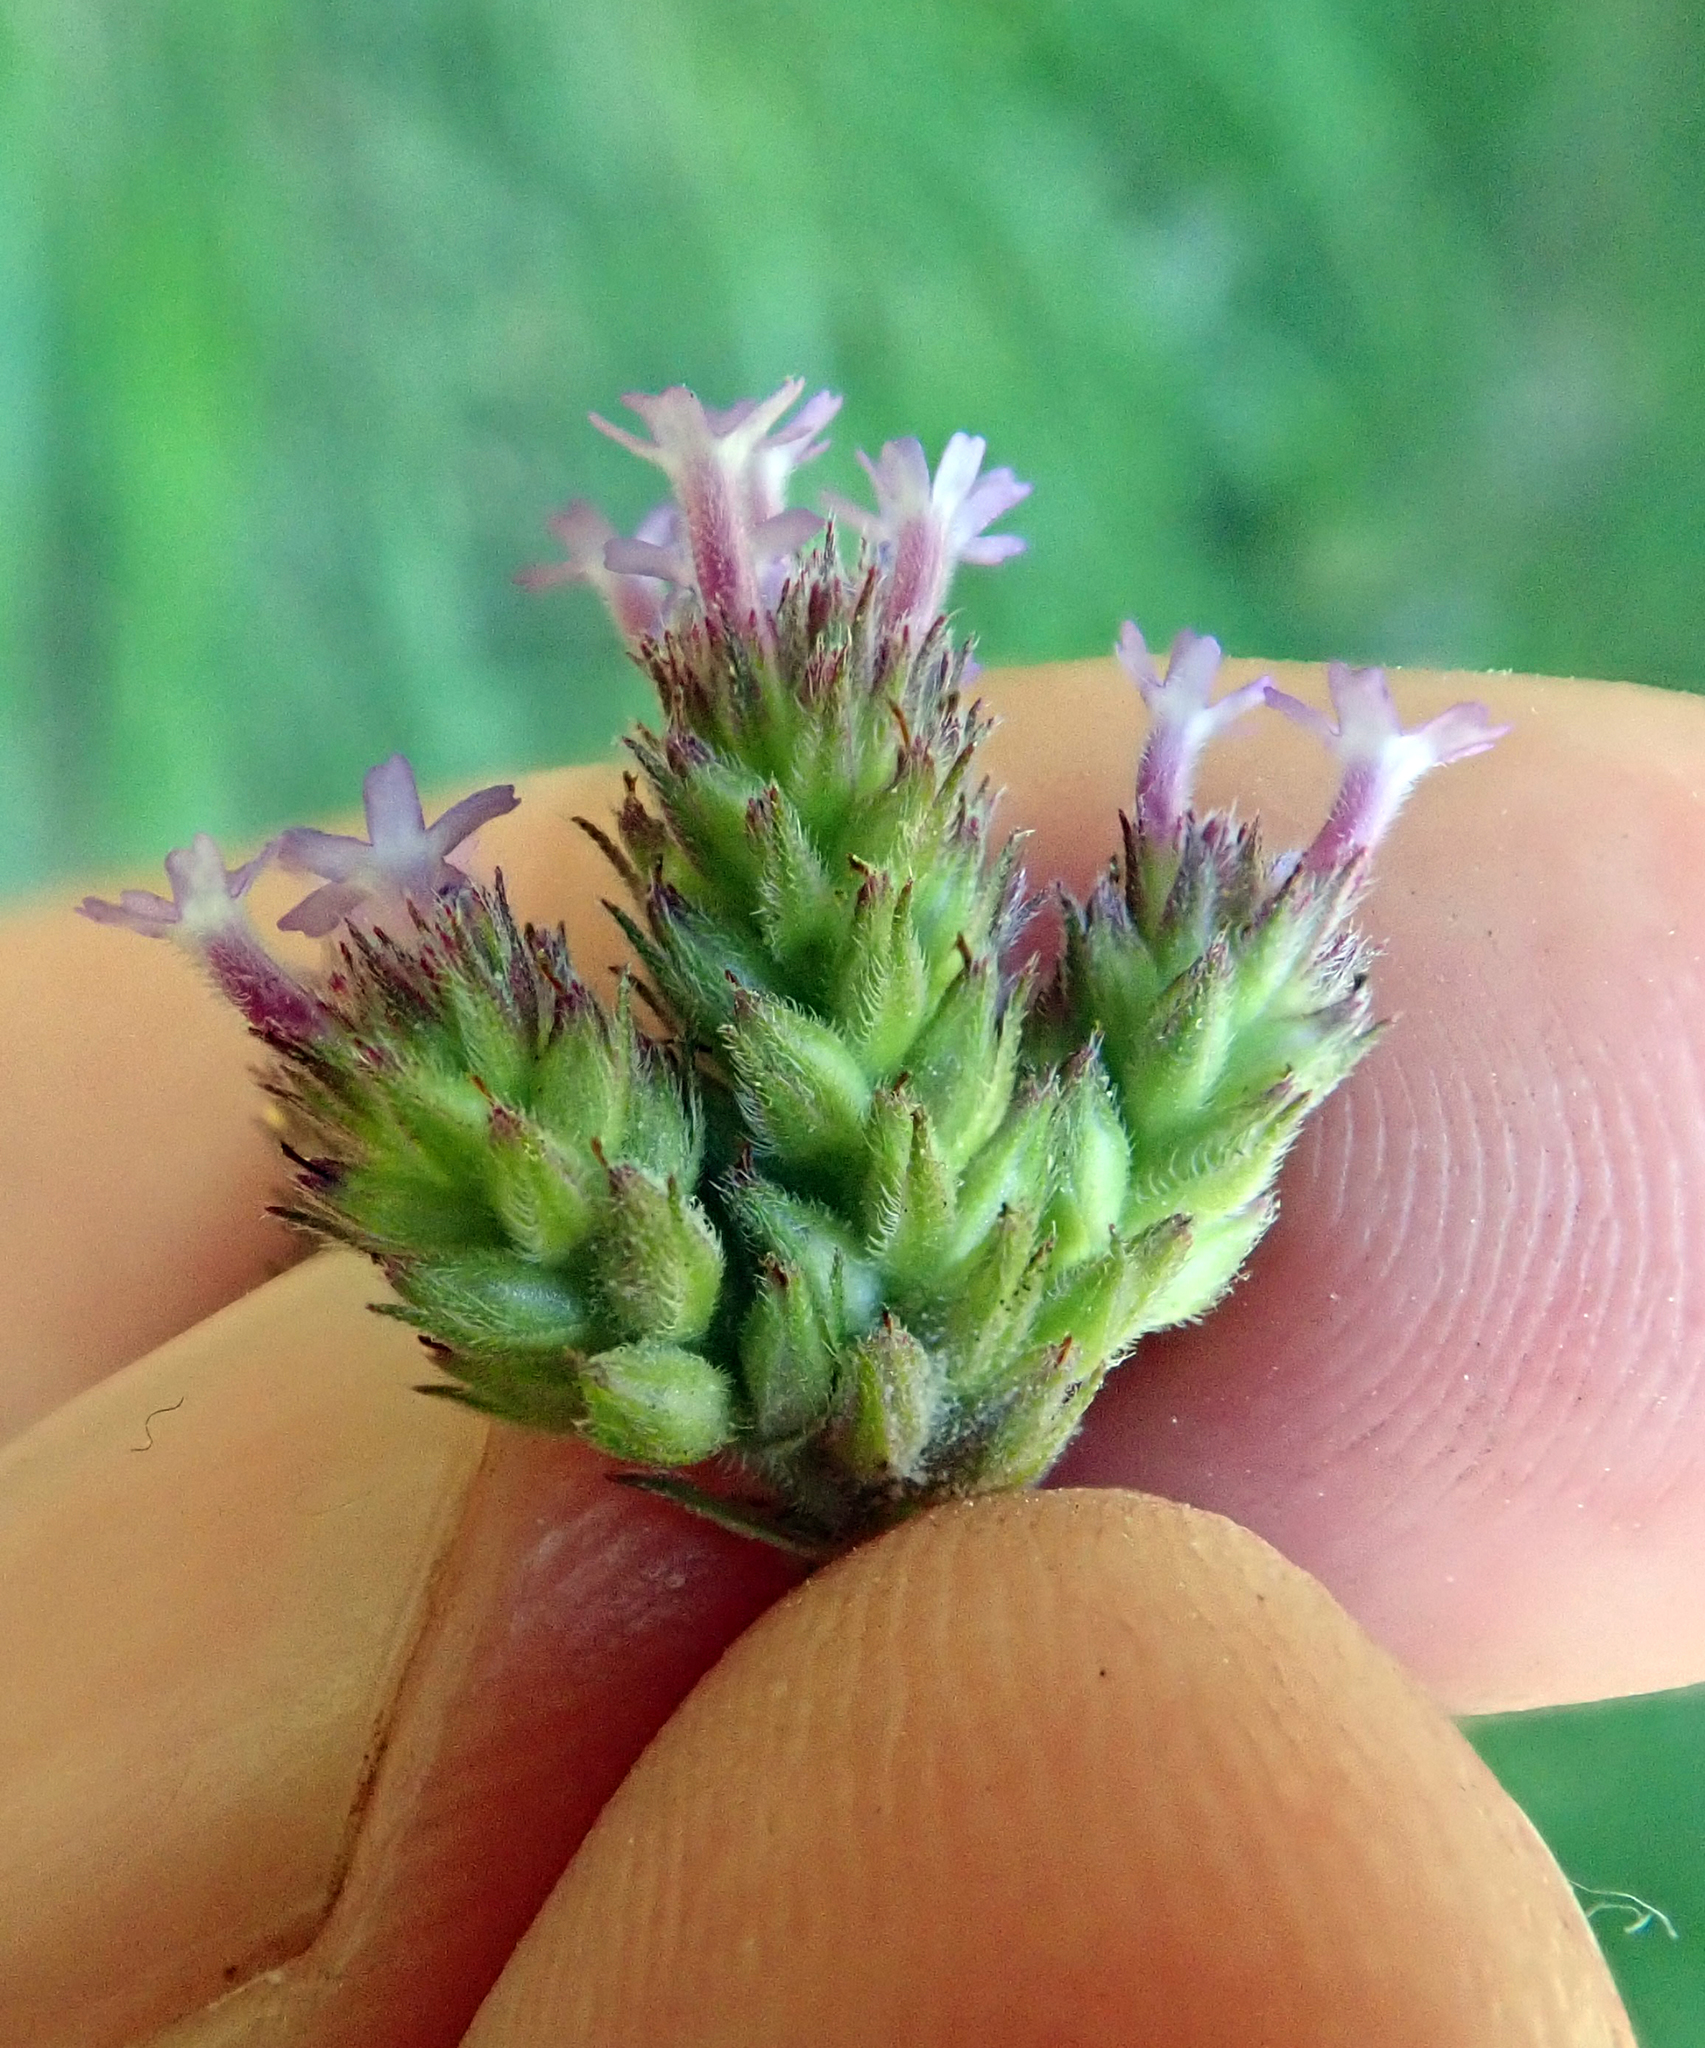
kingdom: Plantae
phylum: Tracheophyta
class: Magnoliopsida
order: Lamiales
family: Verbenaceae
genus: Verbena
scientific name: Verbena incompta
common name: Purpletop vervain
